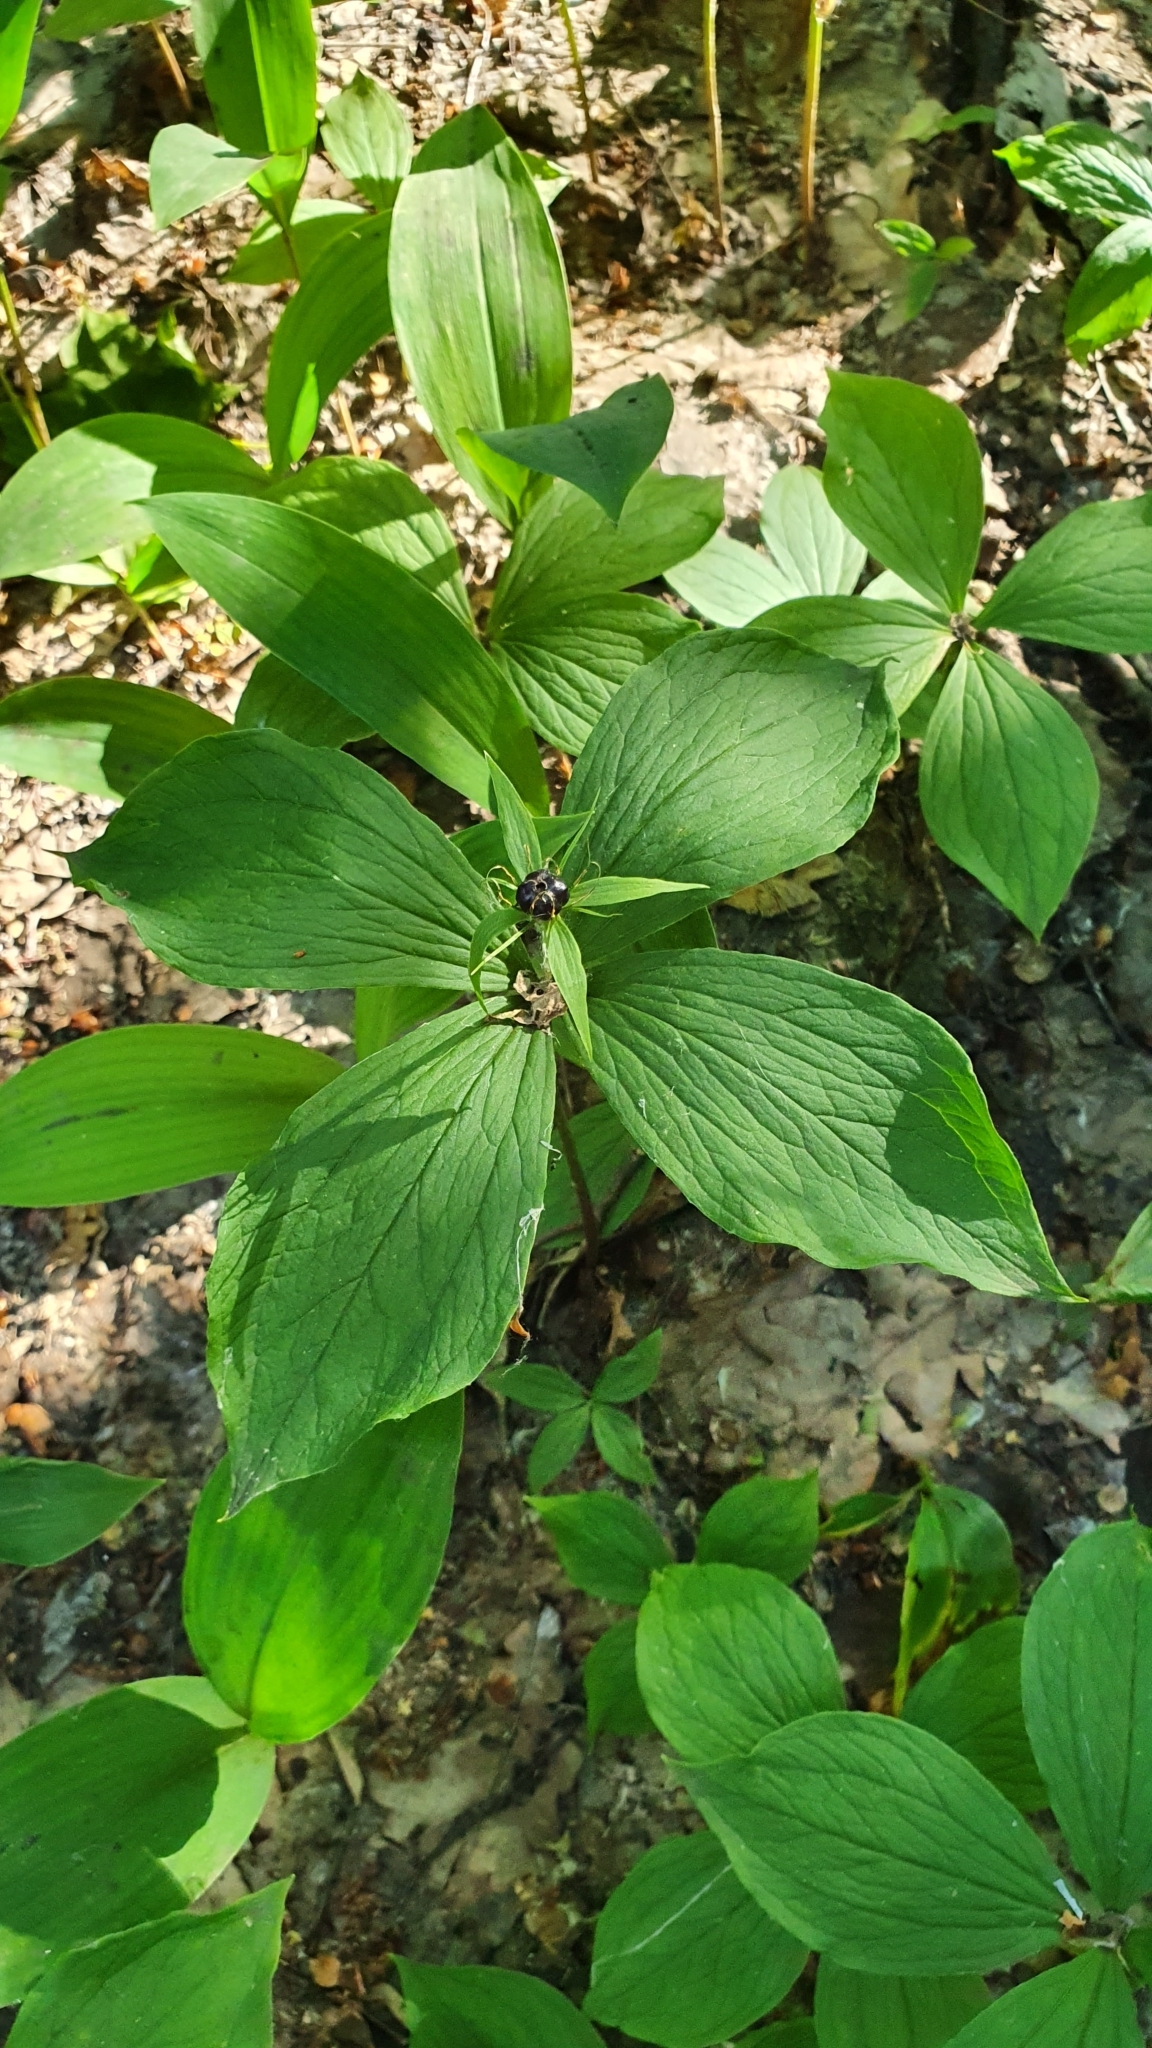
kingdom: Plantae
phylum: Tracheophyta
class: Liliopsida
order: Liliales
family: Melanthiaceae
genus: Paris
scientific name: Paris quadrifolia
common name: Herb-paris
